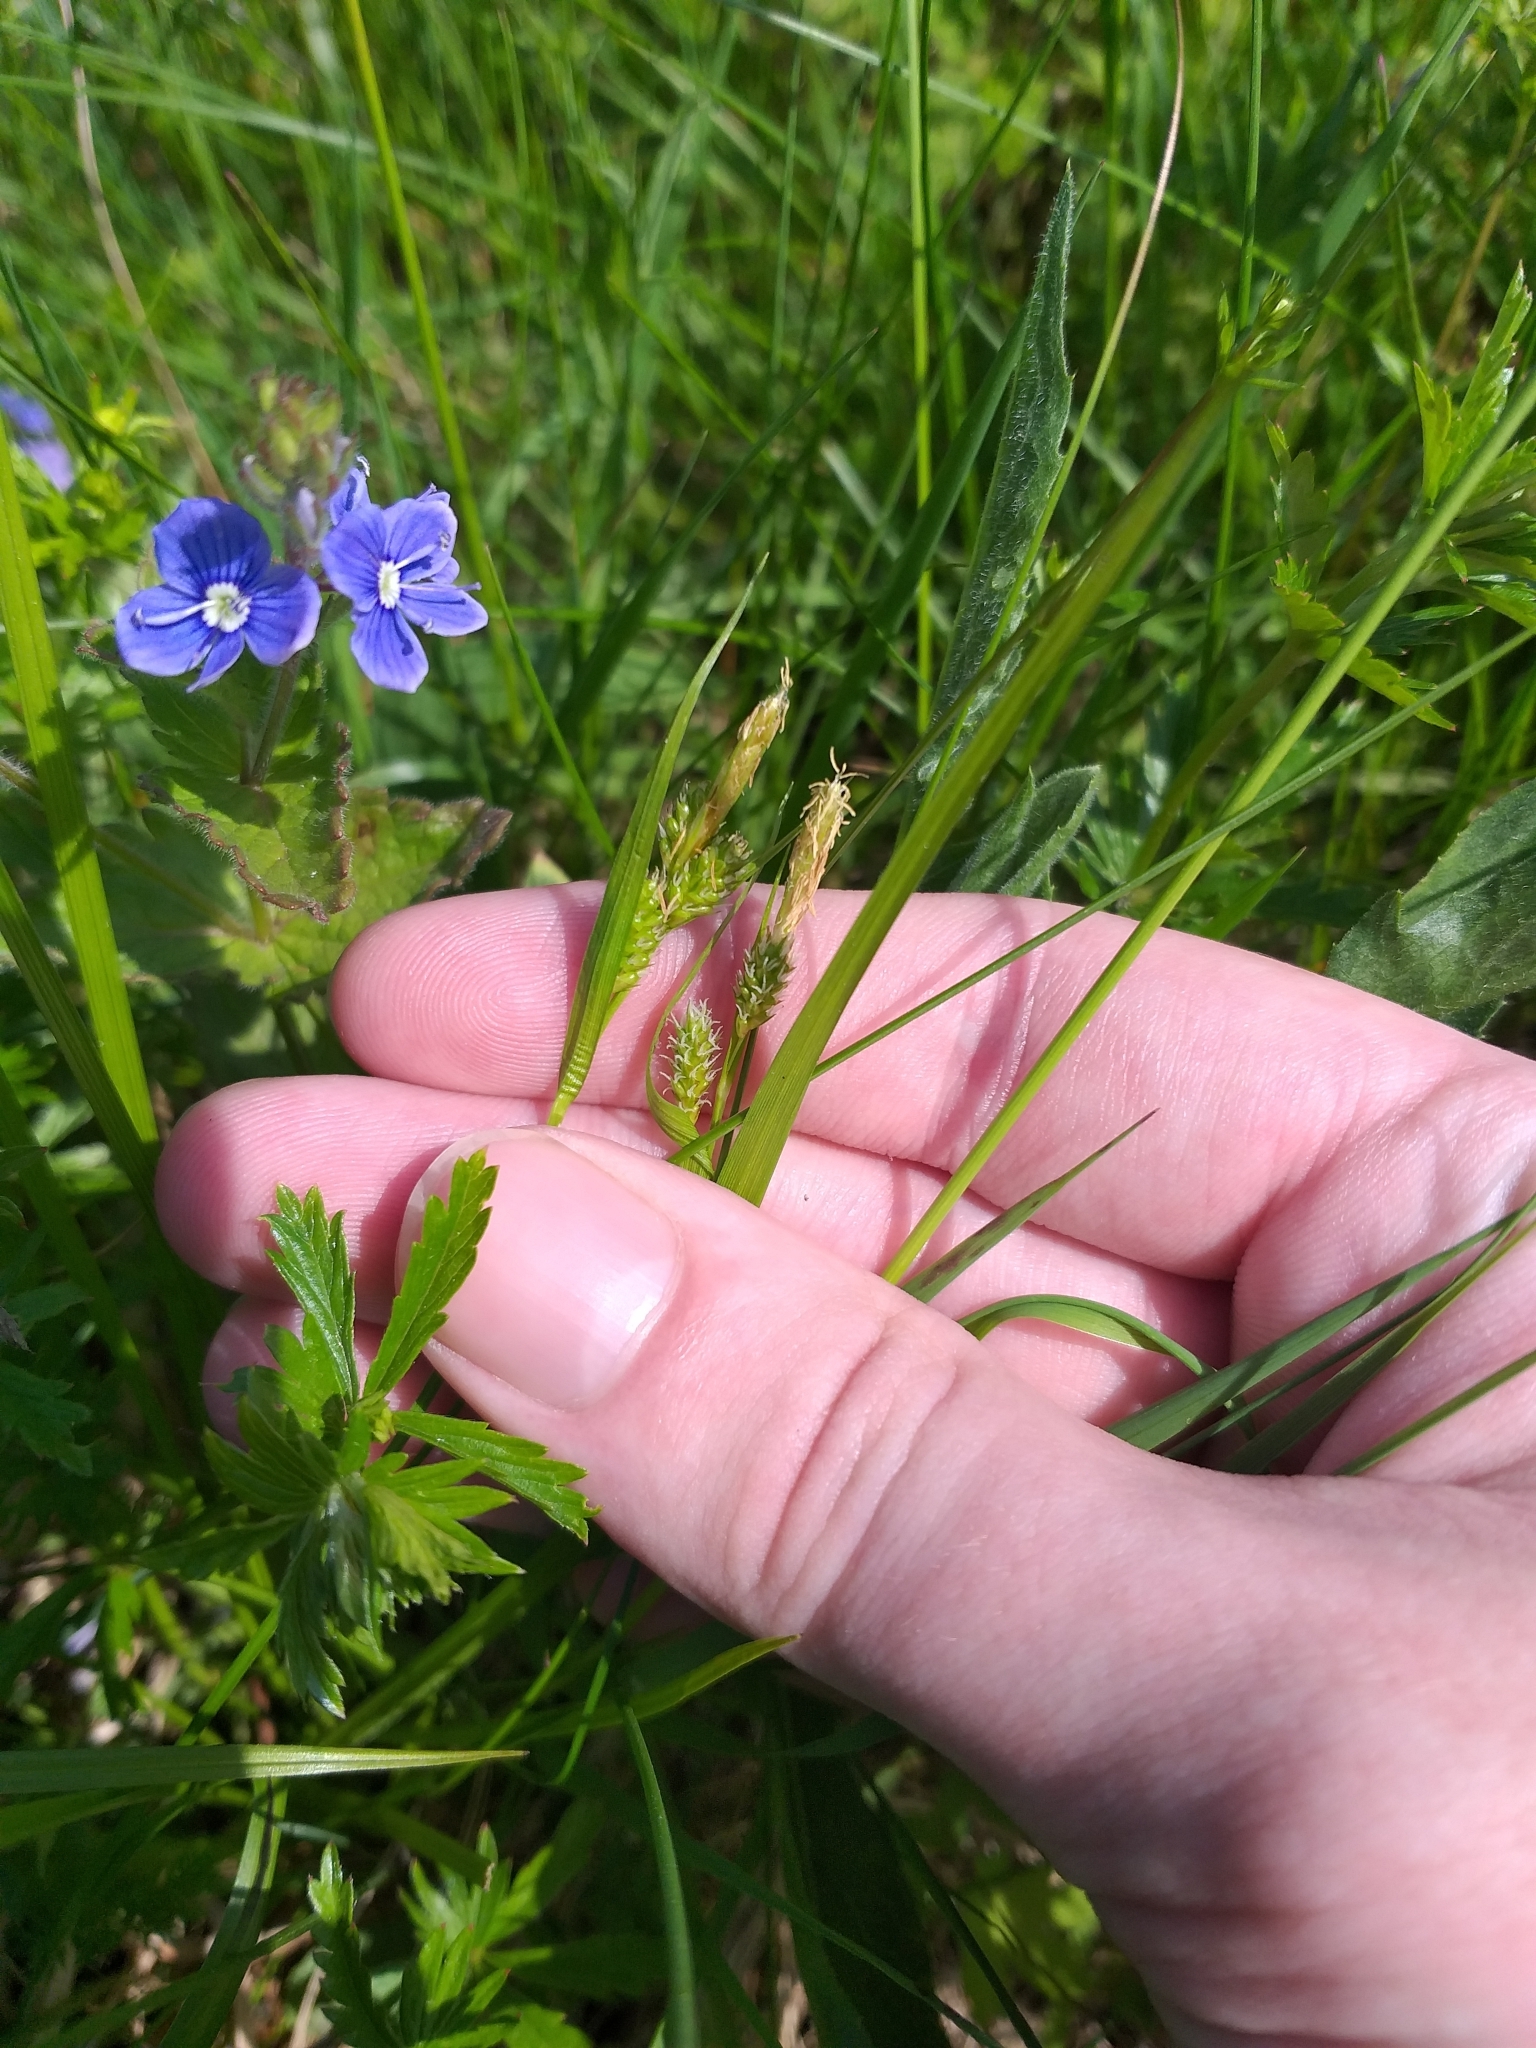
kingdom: Plantae
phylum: Tracheophyta
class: Liliopsida
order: Poales
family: Cyperaceae
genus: Carex
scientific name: Carex pallescens
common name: Pale sedge
